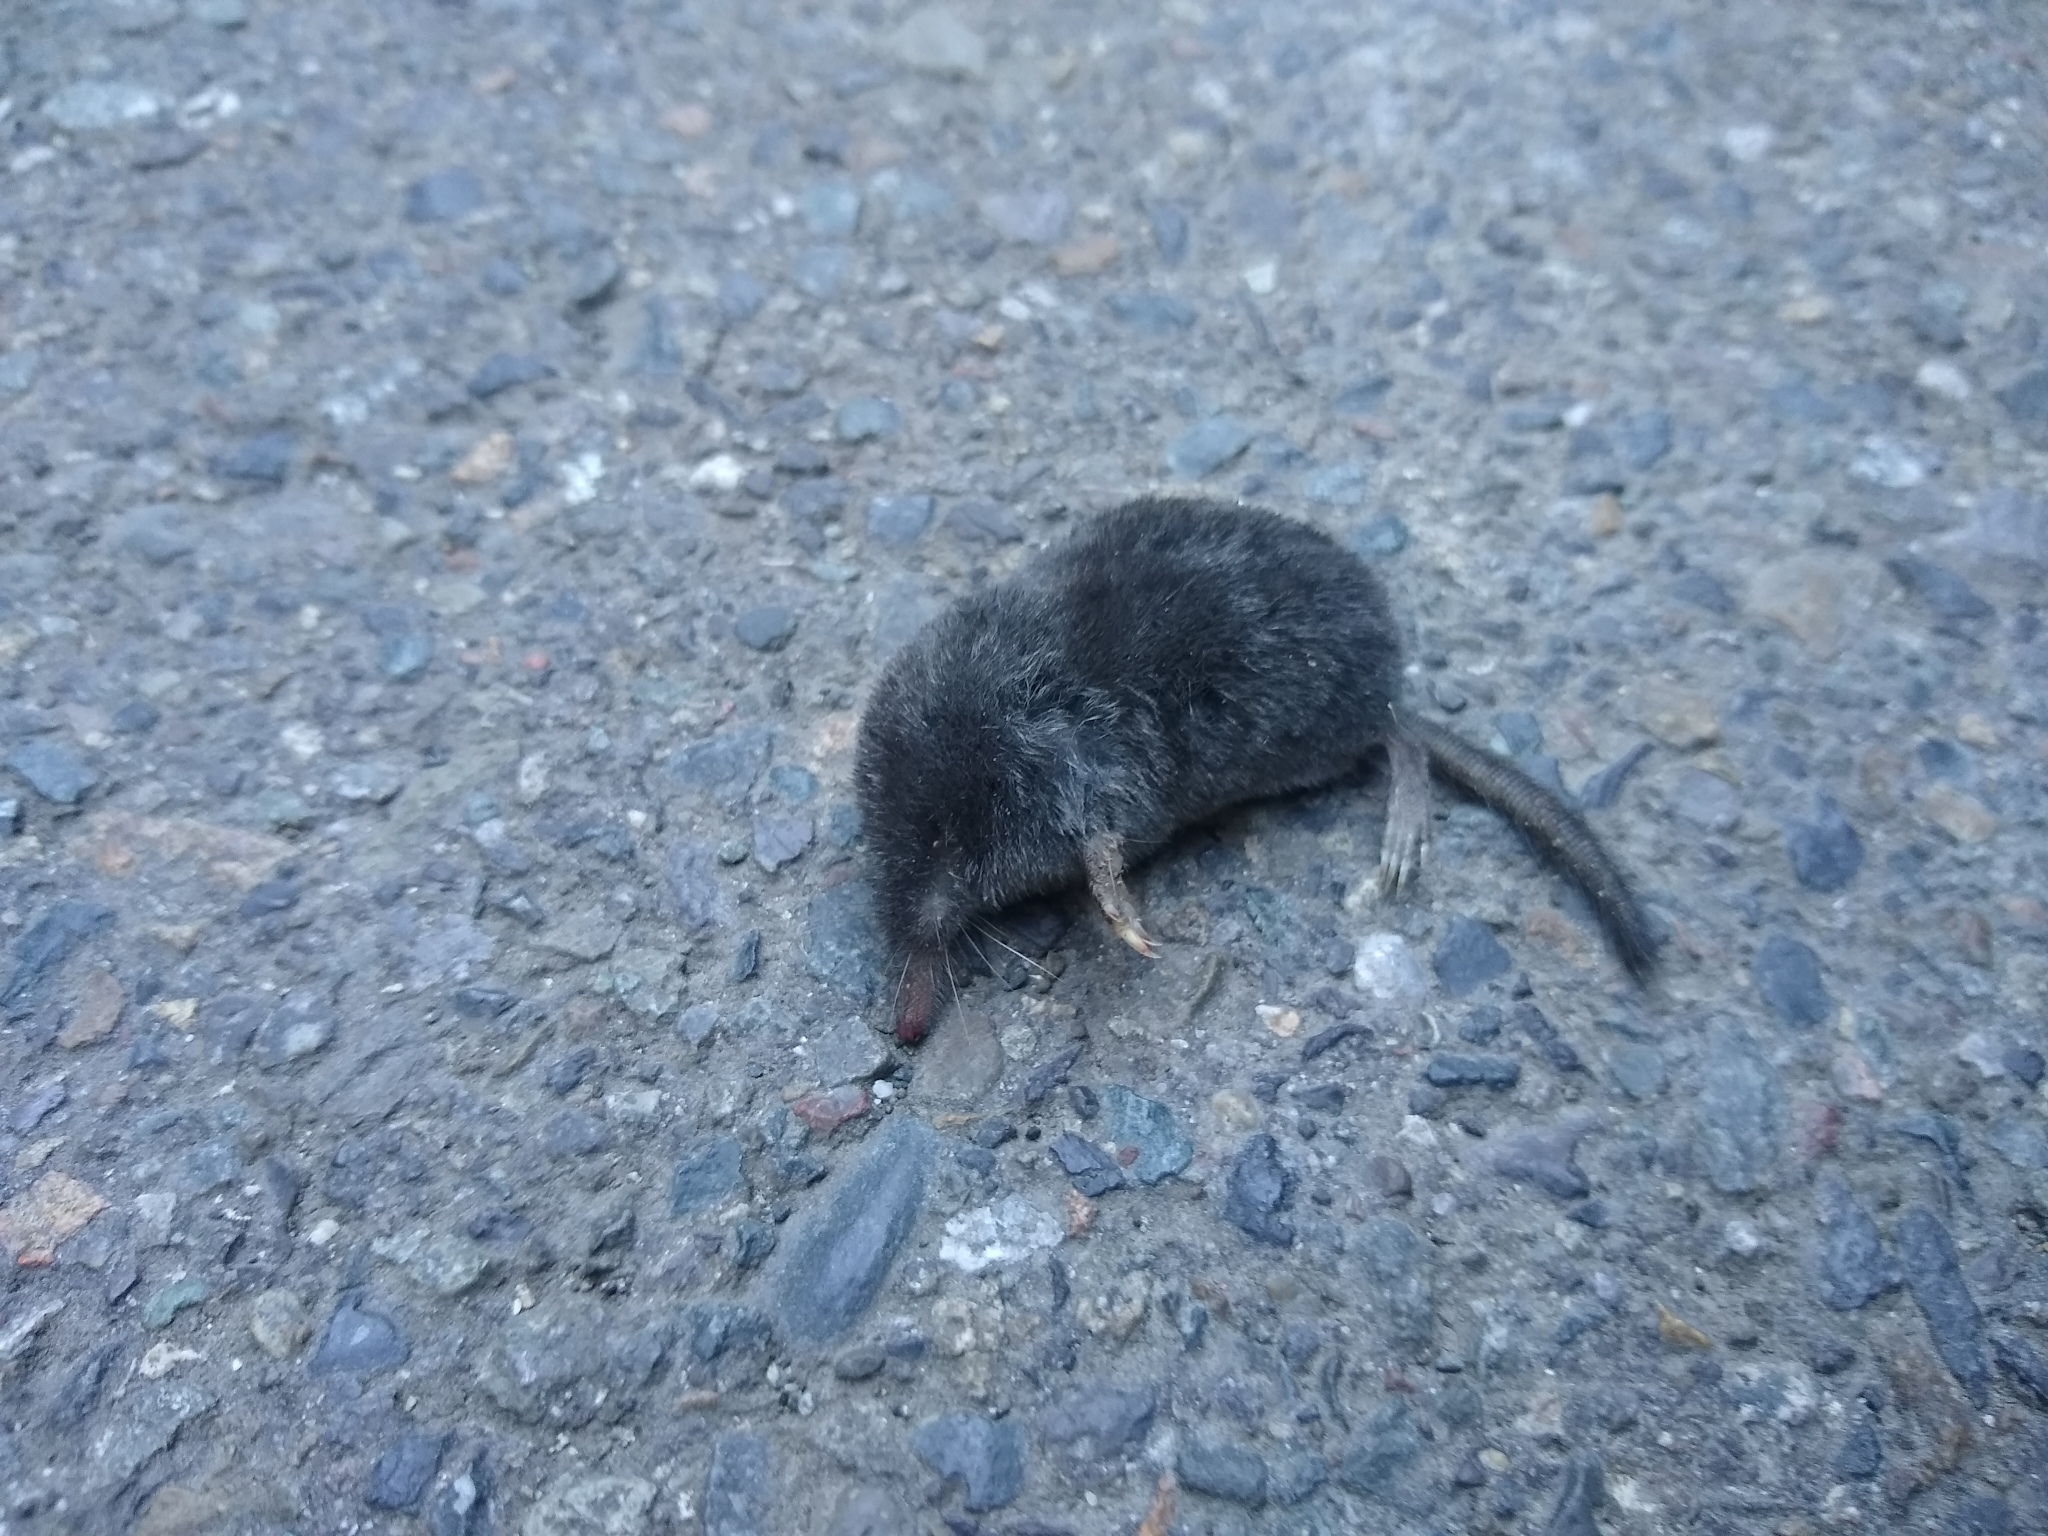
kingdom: Animalia
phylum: Chordata
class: Mammalia
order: Soricomorpha
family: Talpidae
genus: Neurotrichus
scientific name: Neurotrichus gibbsii
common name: American shrew mole
